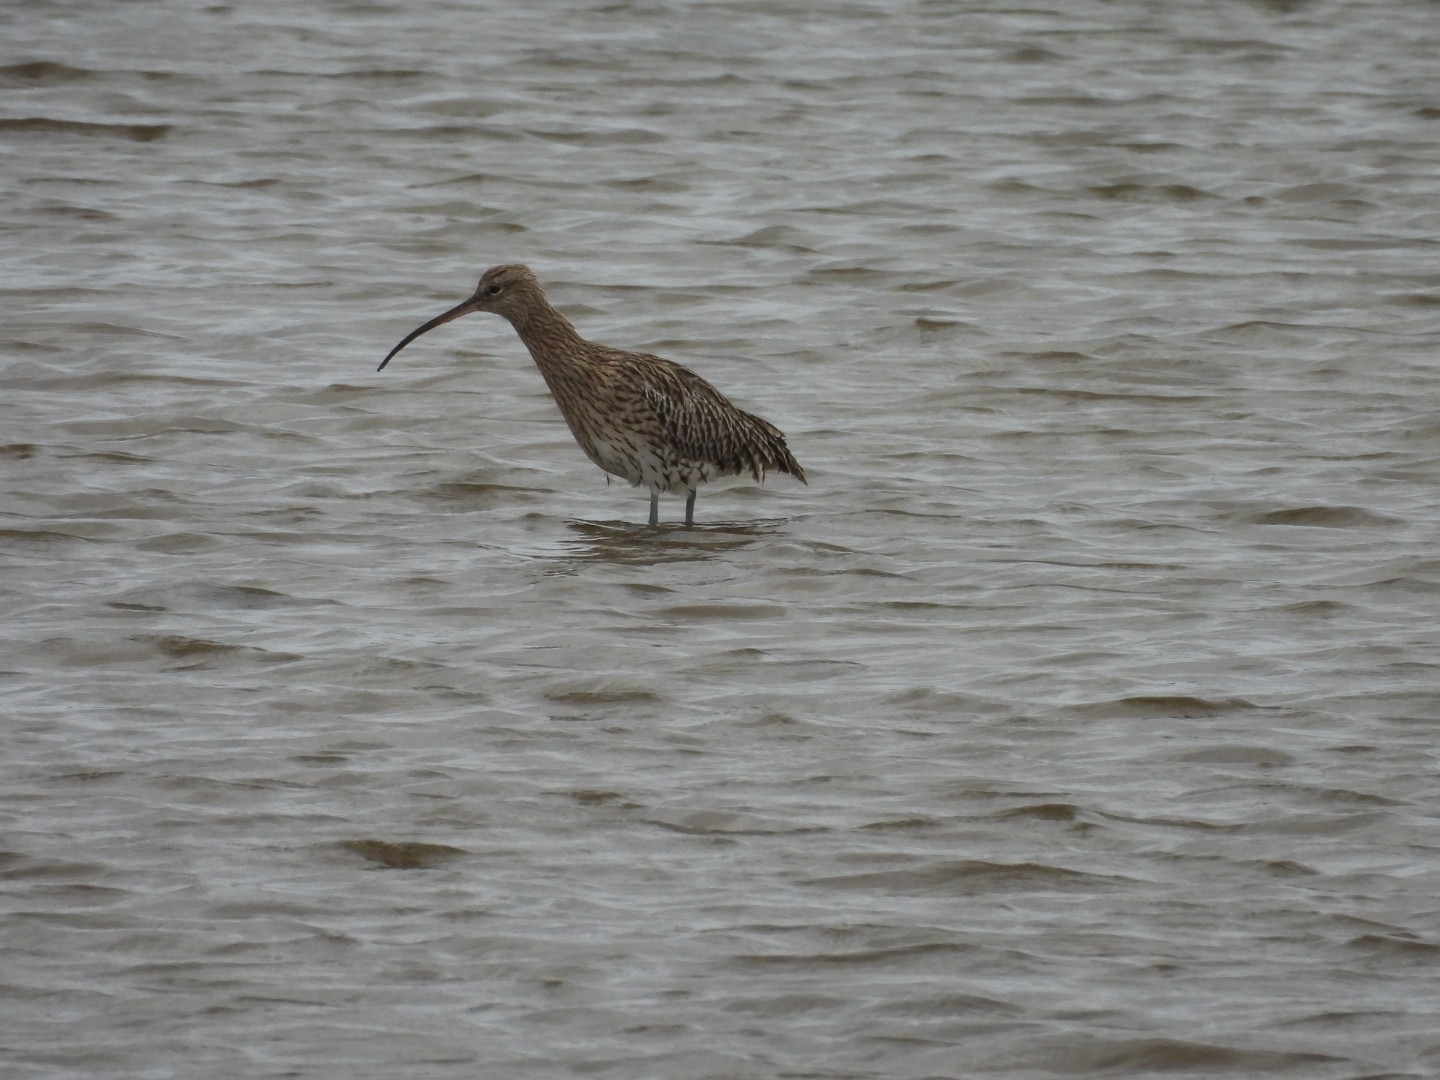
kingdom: Animalia
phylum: Chordata
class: Aves
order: Charadriiformes
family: Scolopacidae
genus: Numenius
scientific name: Numenius arquata
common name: Eurasian curlew
